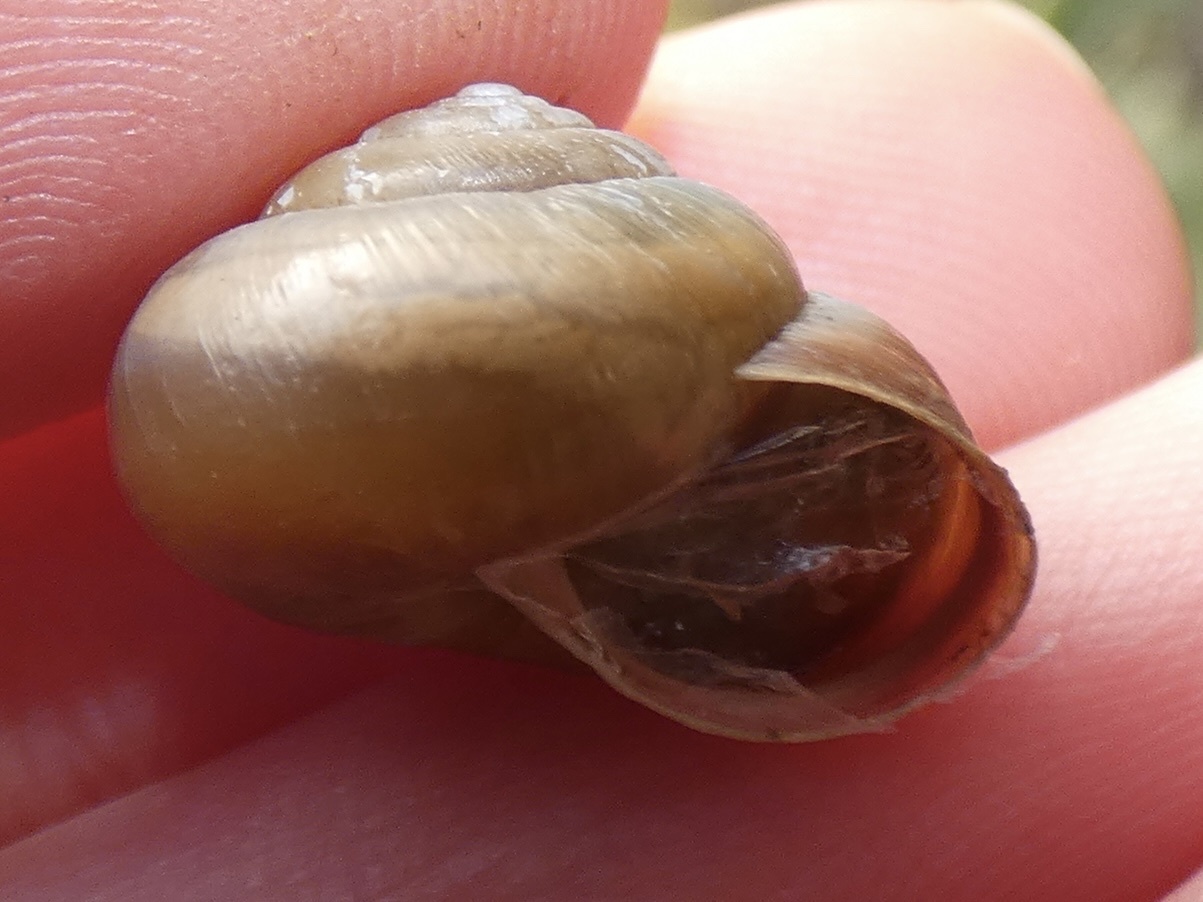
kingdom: Animalia
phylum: Mollusca
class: Gastropoda
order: Stylommatophora
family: Hygromiidae
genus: Monacha
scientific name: Monacha cantiana
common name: Kentish snail
